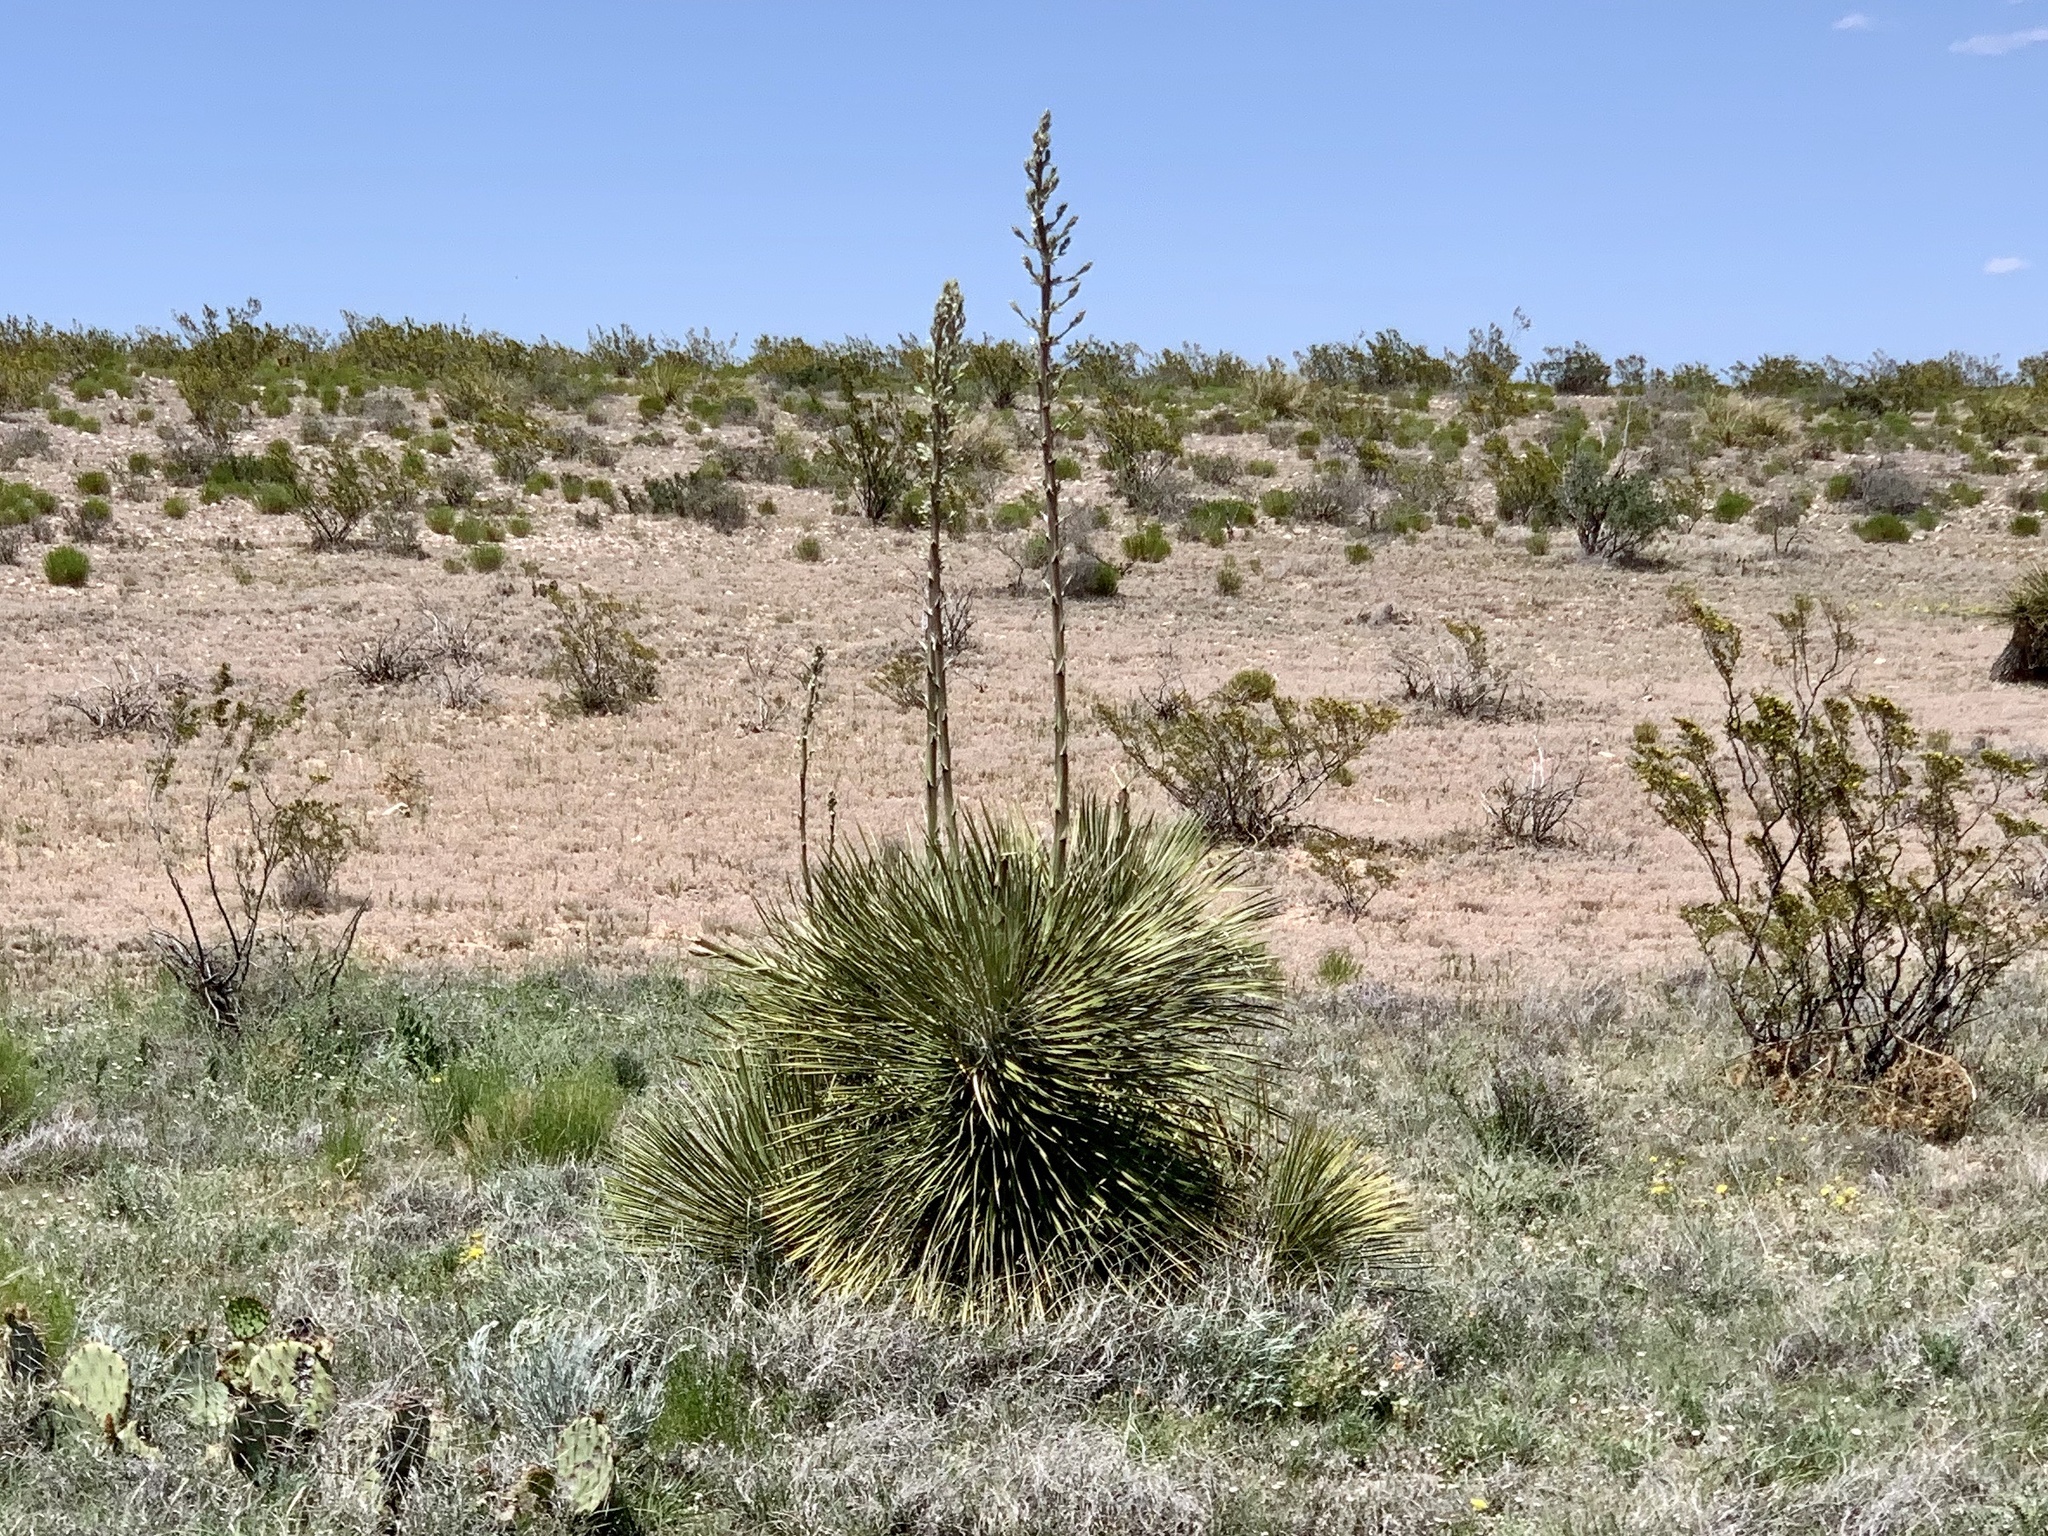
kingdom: Plantae
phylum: Tracheophyta
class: Liliopsida
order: Asparagales
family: Asparagaceae
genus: Yucca
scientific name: Yucca elata
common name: Palmella
